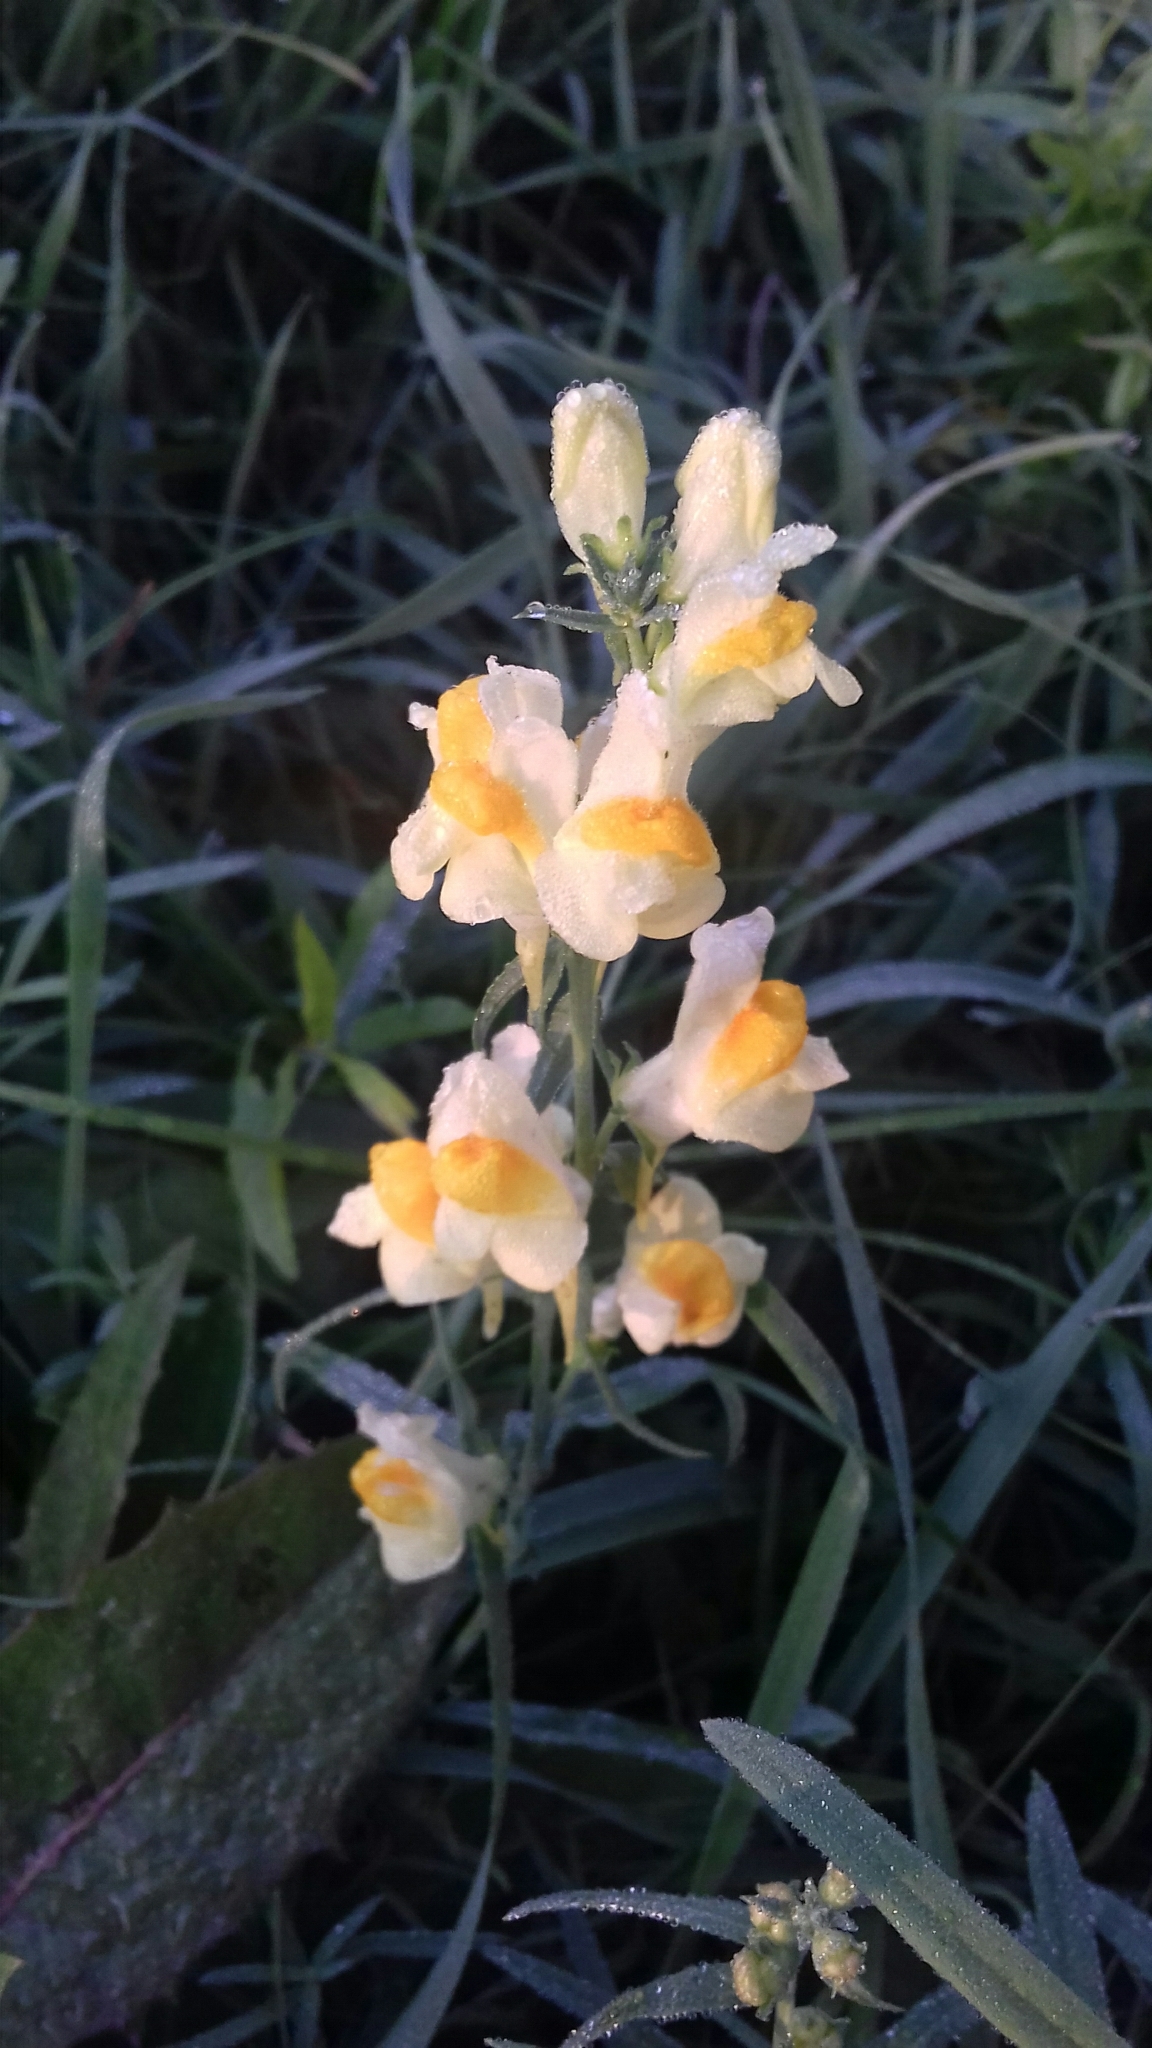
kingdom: Plantae
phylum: Tracheophyta
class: Magnoliopsida
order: Lamiales
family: Plantaginaceae
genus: Linaria
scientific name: Linaria vulgaris
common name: Butter and eggs
